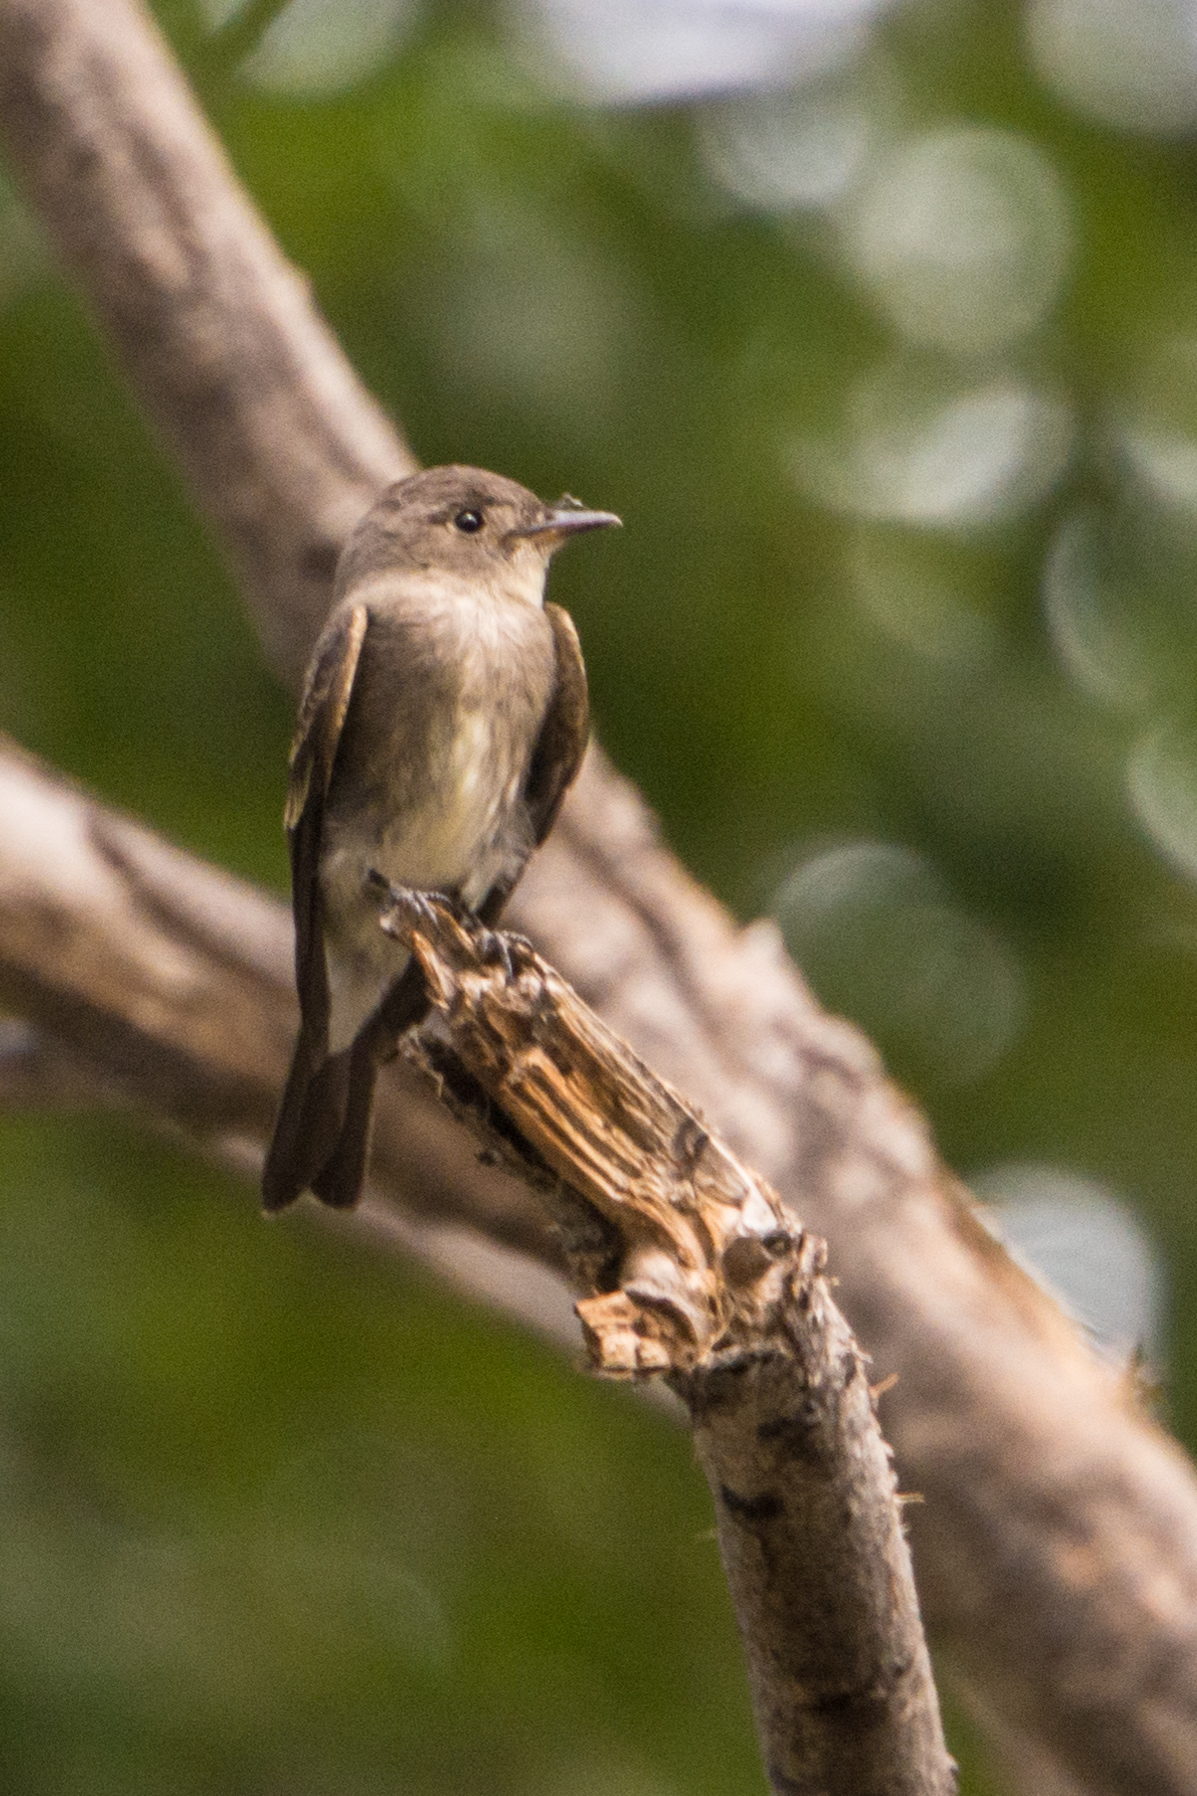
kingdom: Animalia
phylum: Chordata
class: Aves
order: Passeriformes
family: Tyrannidae
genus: Contopus
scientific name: Contopus sordidulus
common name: Western wood-pewee
